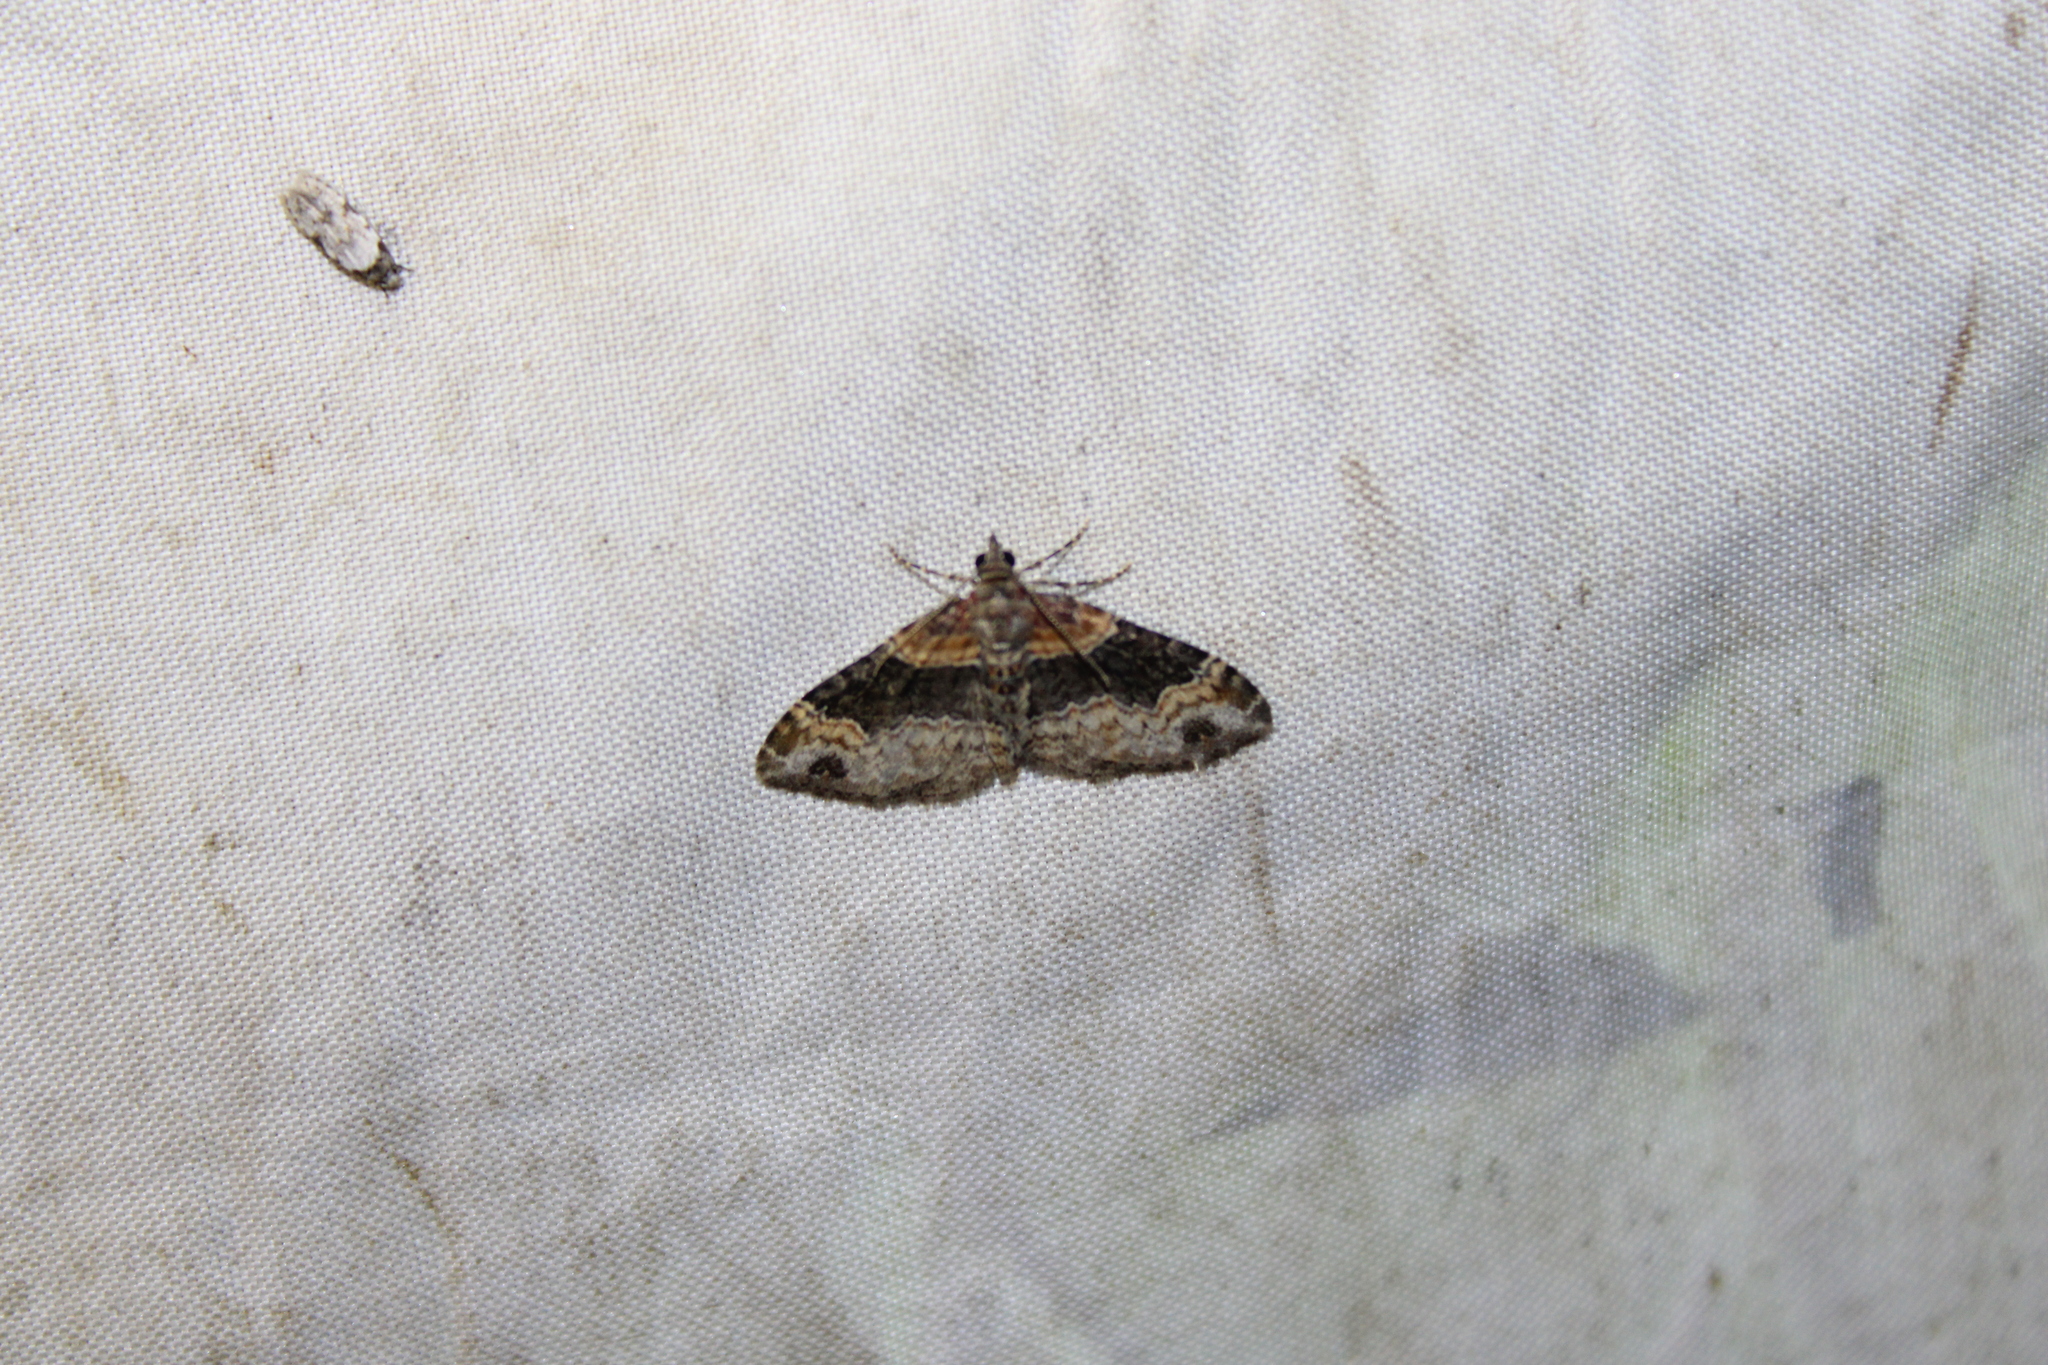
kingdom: Animalia
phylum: Arthropoda
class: Insecta
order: Lepidoptera
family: Geometridae
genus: Xanthorhoe
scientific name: Xanthorhoe ferrugata
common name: Dark-barred twin-spot carpet
